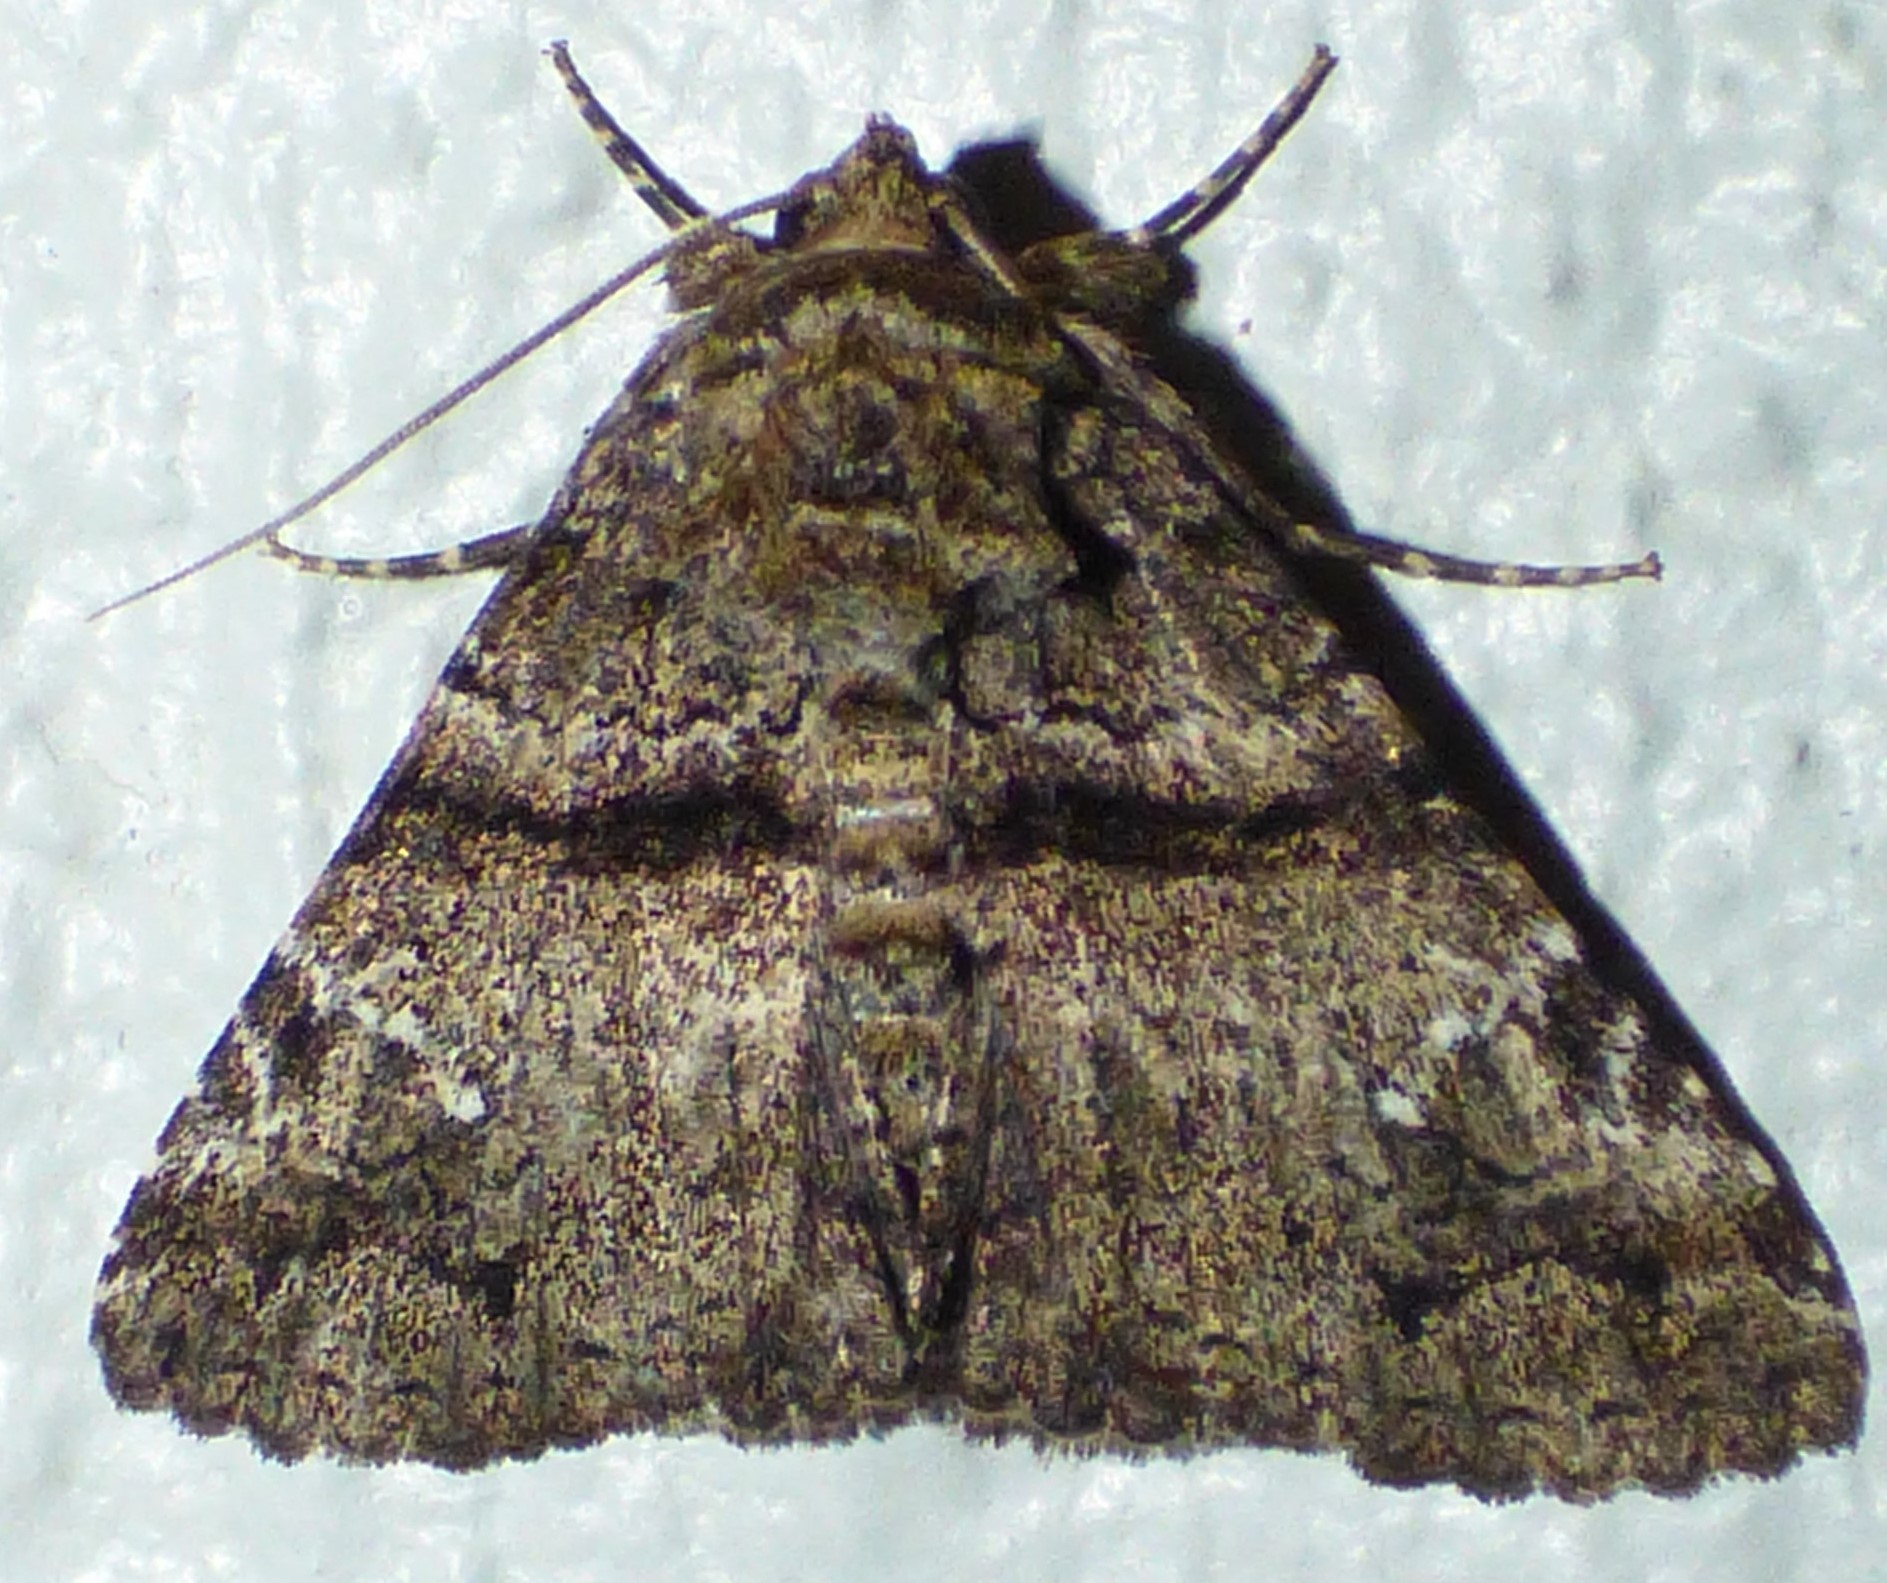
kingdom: Animalia
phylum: Arthropoda
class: Insecta
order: Lepidoptera
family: Erebidae
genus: Metria
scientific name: Metria amella
